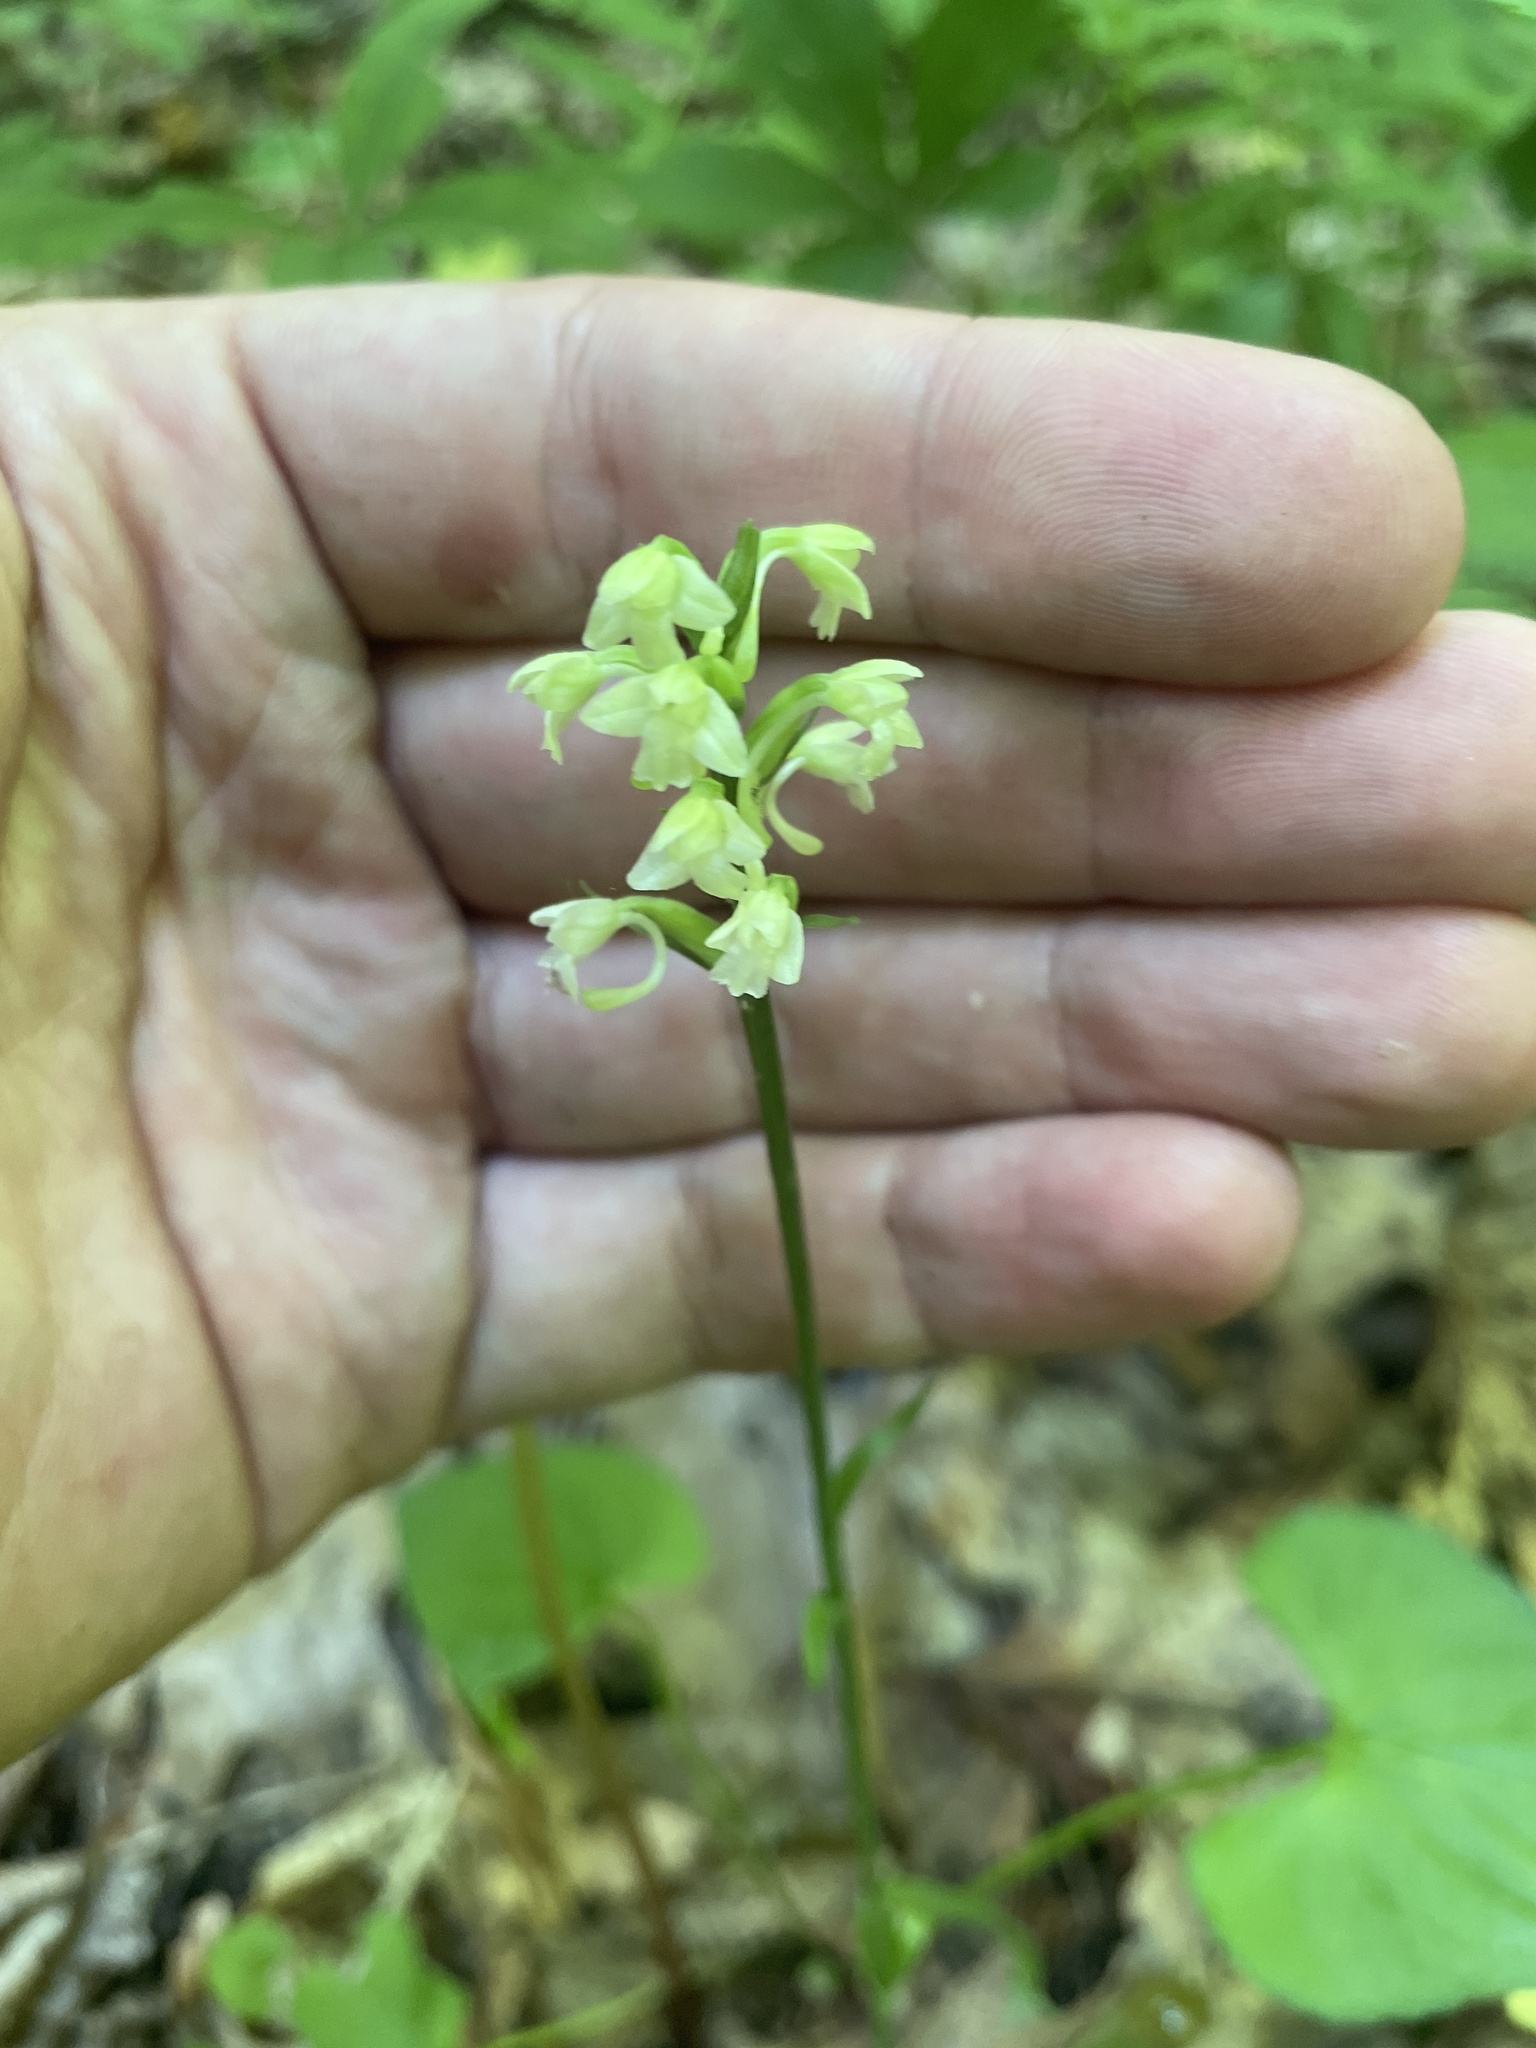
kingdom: Plantae
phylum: Tracheophyta
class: Liliopsida
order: Asparagales
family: Orchidaceae
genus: Platanthera
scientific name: Platanthera clavellata
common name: Club-spur orchid
